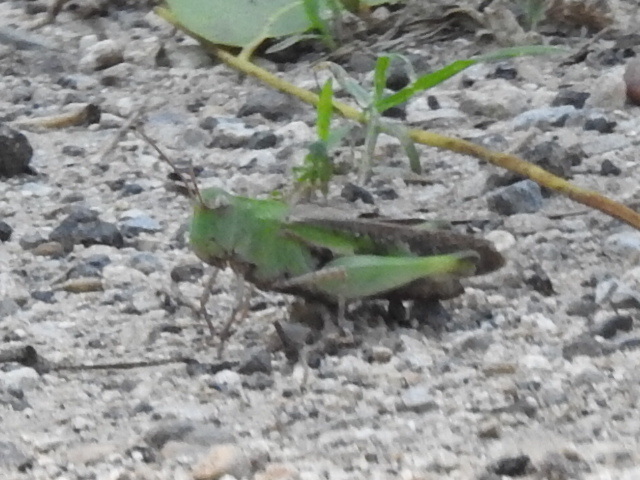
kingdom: Animalia
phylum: Arthropoda
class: Insecta
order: Orthoptera
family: Acrididae
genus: Chortophaga
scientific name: Chortophaga viridifasciata
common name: Green-striped grasshopper
